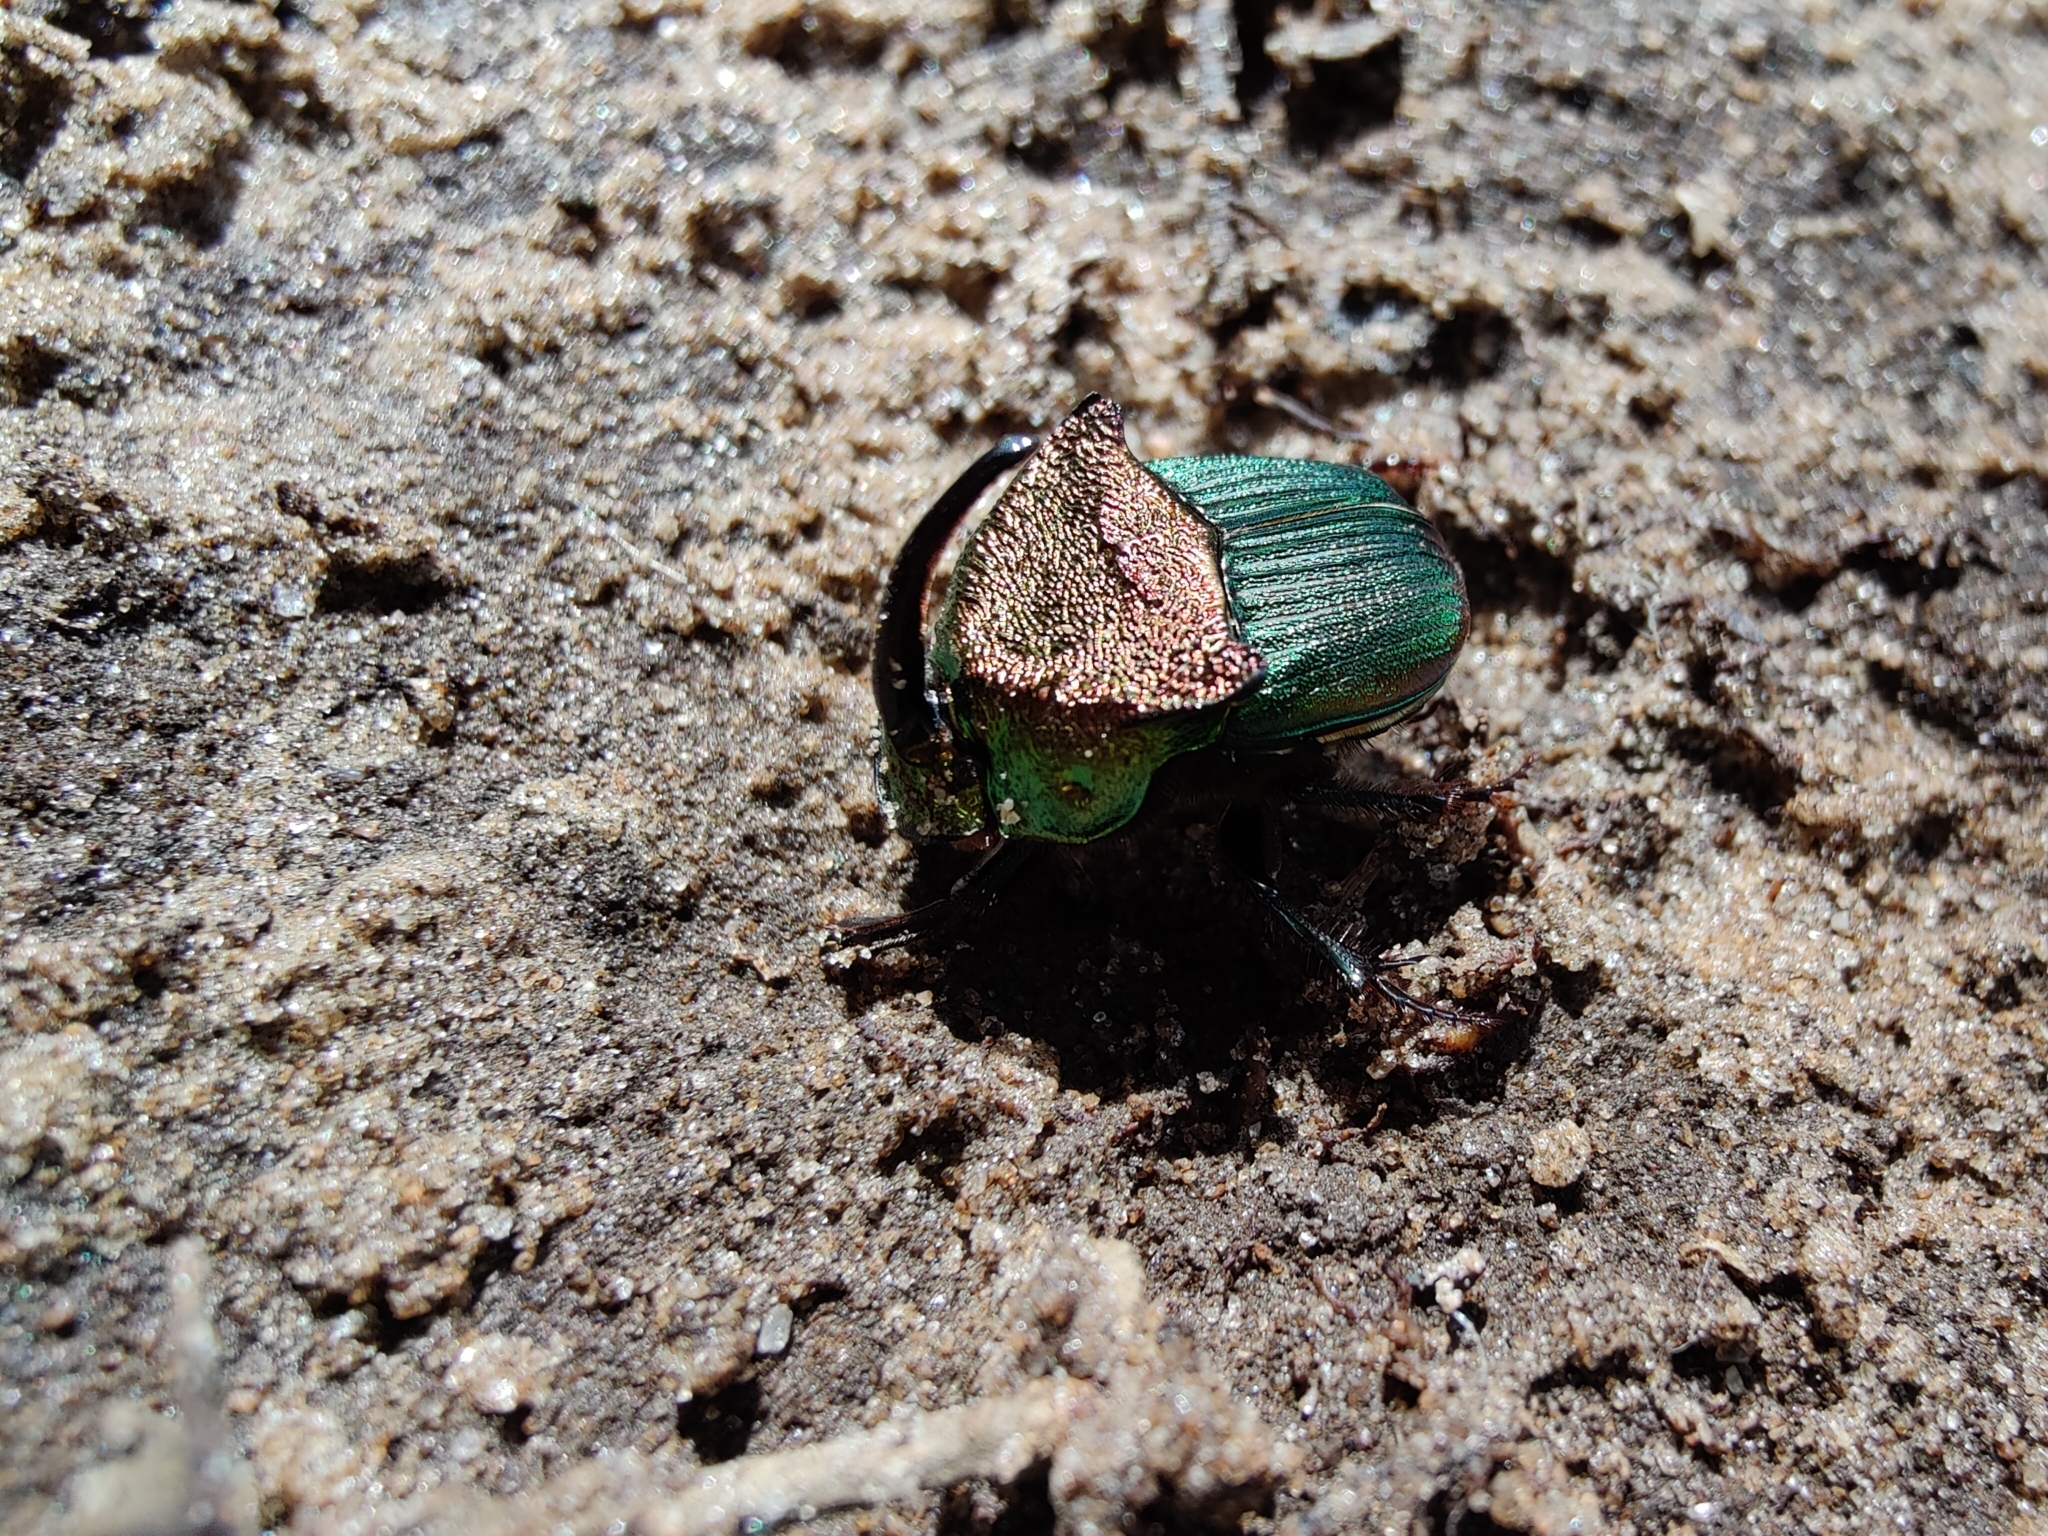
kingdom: Animalia
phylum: Arthropoda
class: Insecta
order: Coleoptera
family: Scarabaeidae
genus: Phanaeus
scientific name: Phanaeus vindex
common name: Rainbow scarab
